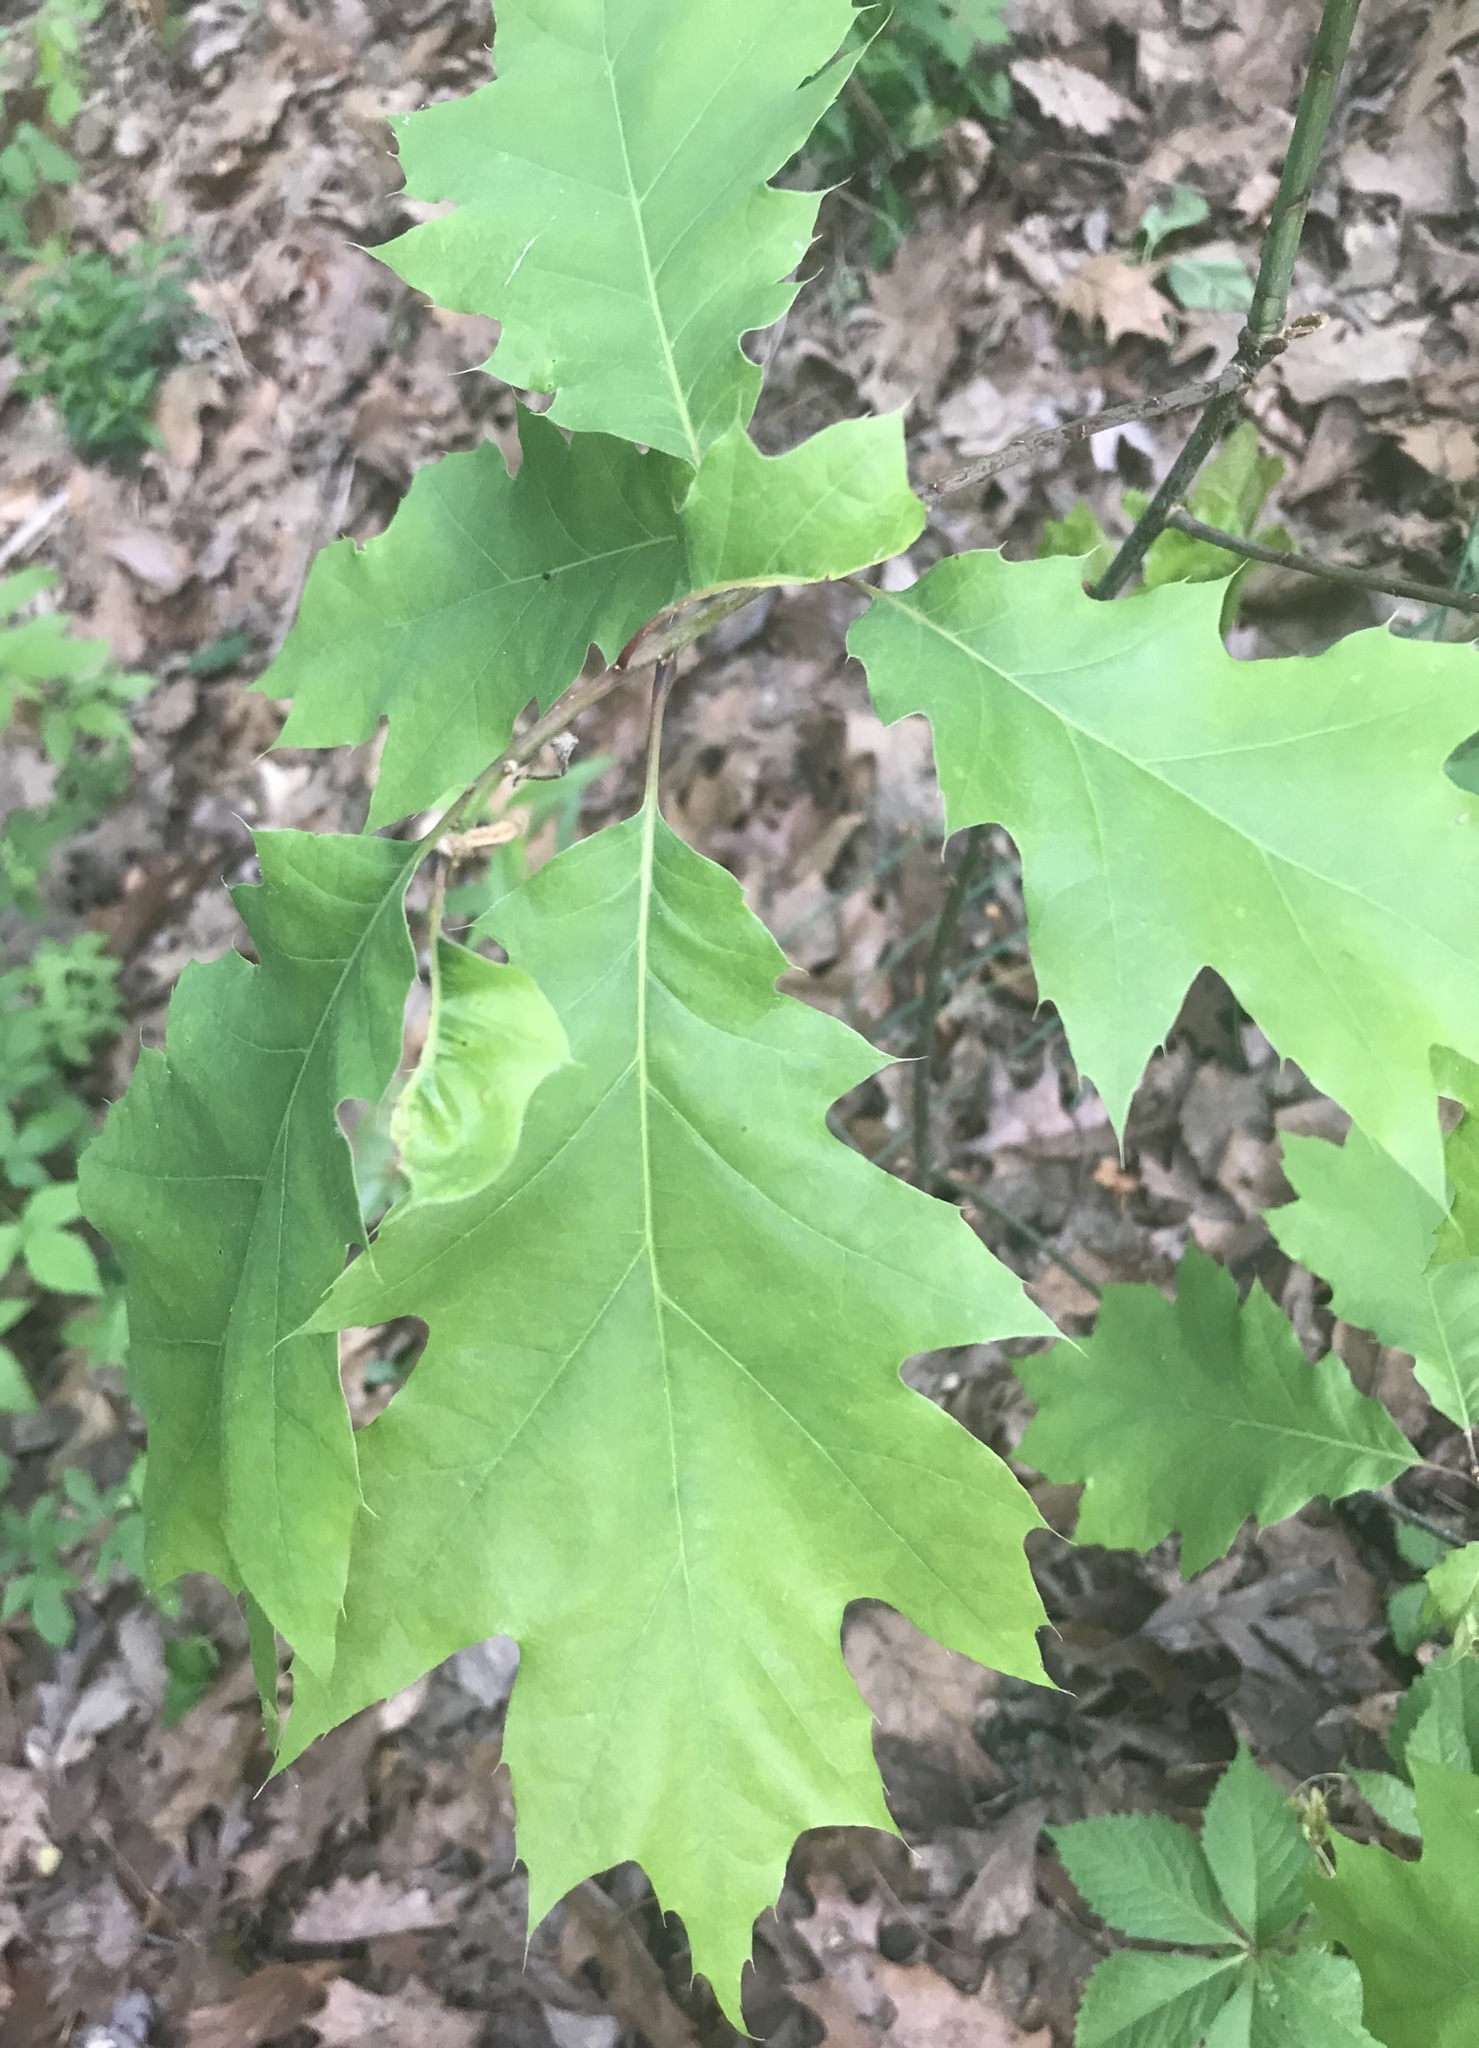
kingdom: Plantae
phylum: Tracheophyta
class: Magnoliopsida
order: Fagales
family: Fagaceae
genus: Quercus
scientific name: Quercus rubra
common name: Red oak
